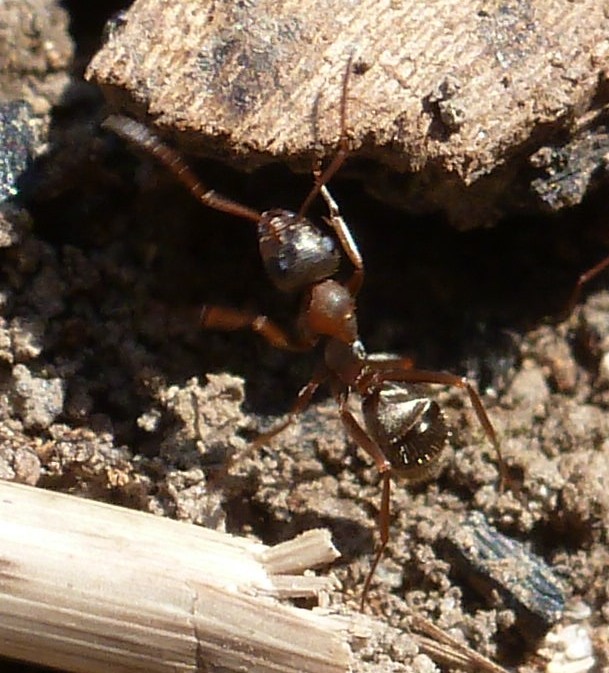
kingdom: Animalia
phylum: Arthropoda
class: Insecta
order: Hymenoptera
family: Formicidae
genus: Formica
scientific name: Formica
